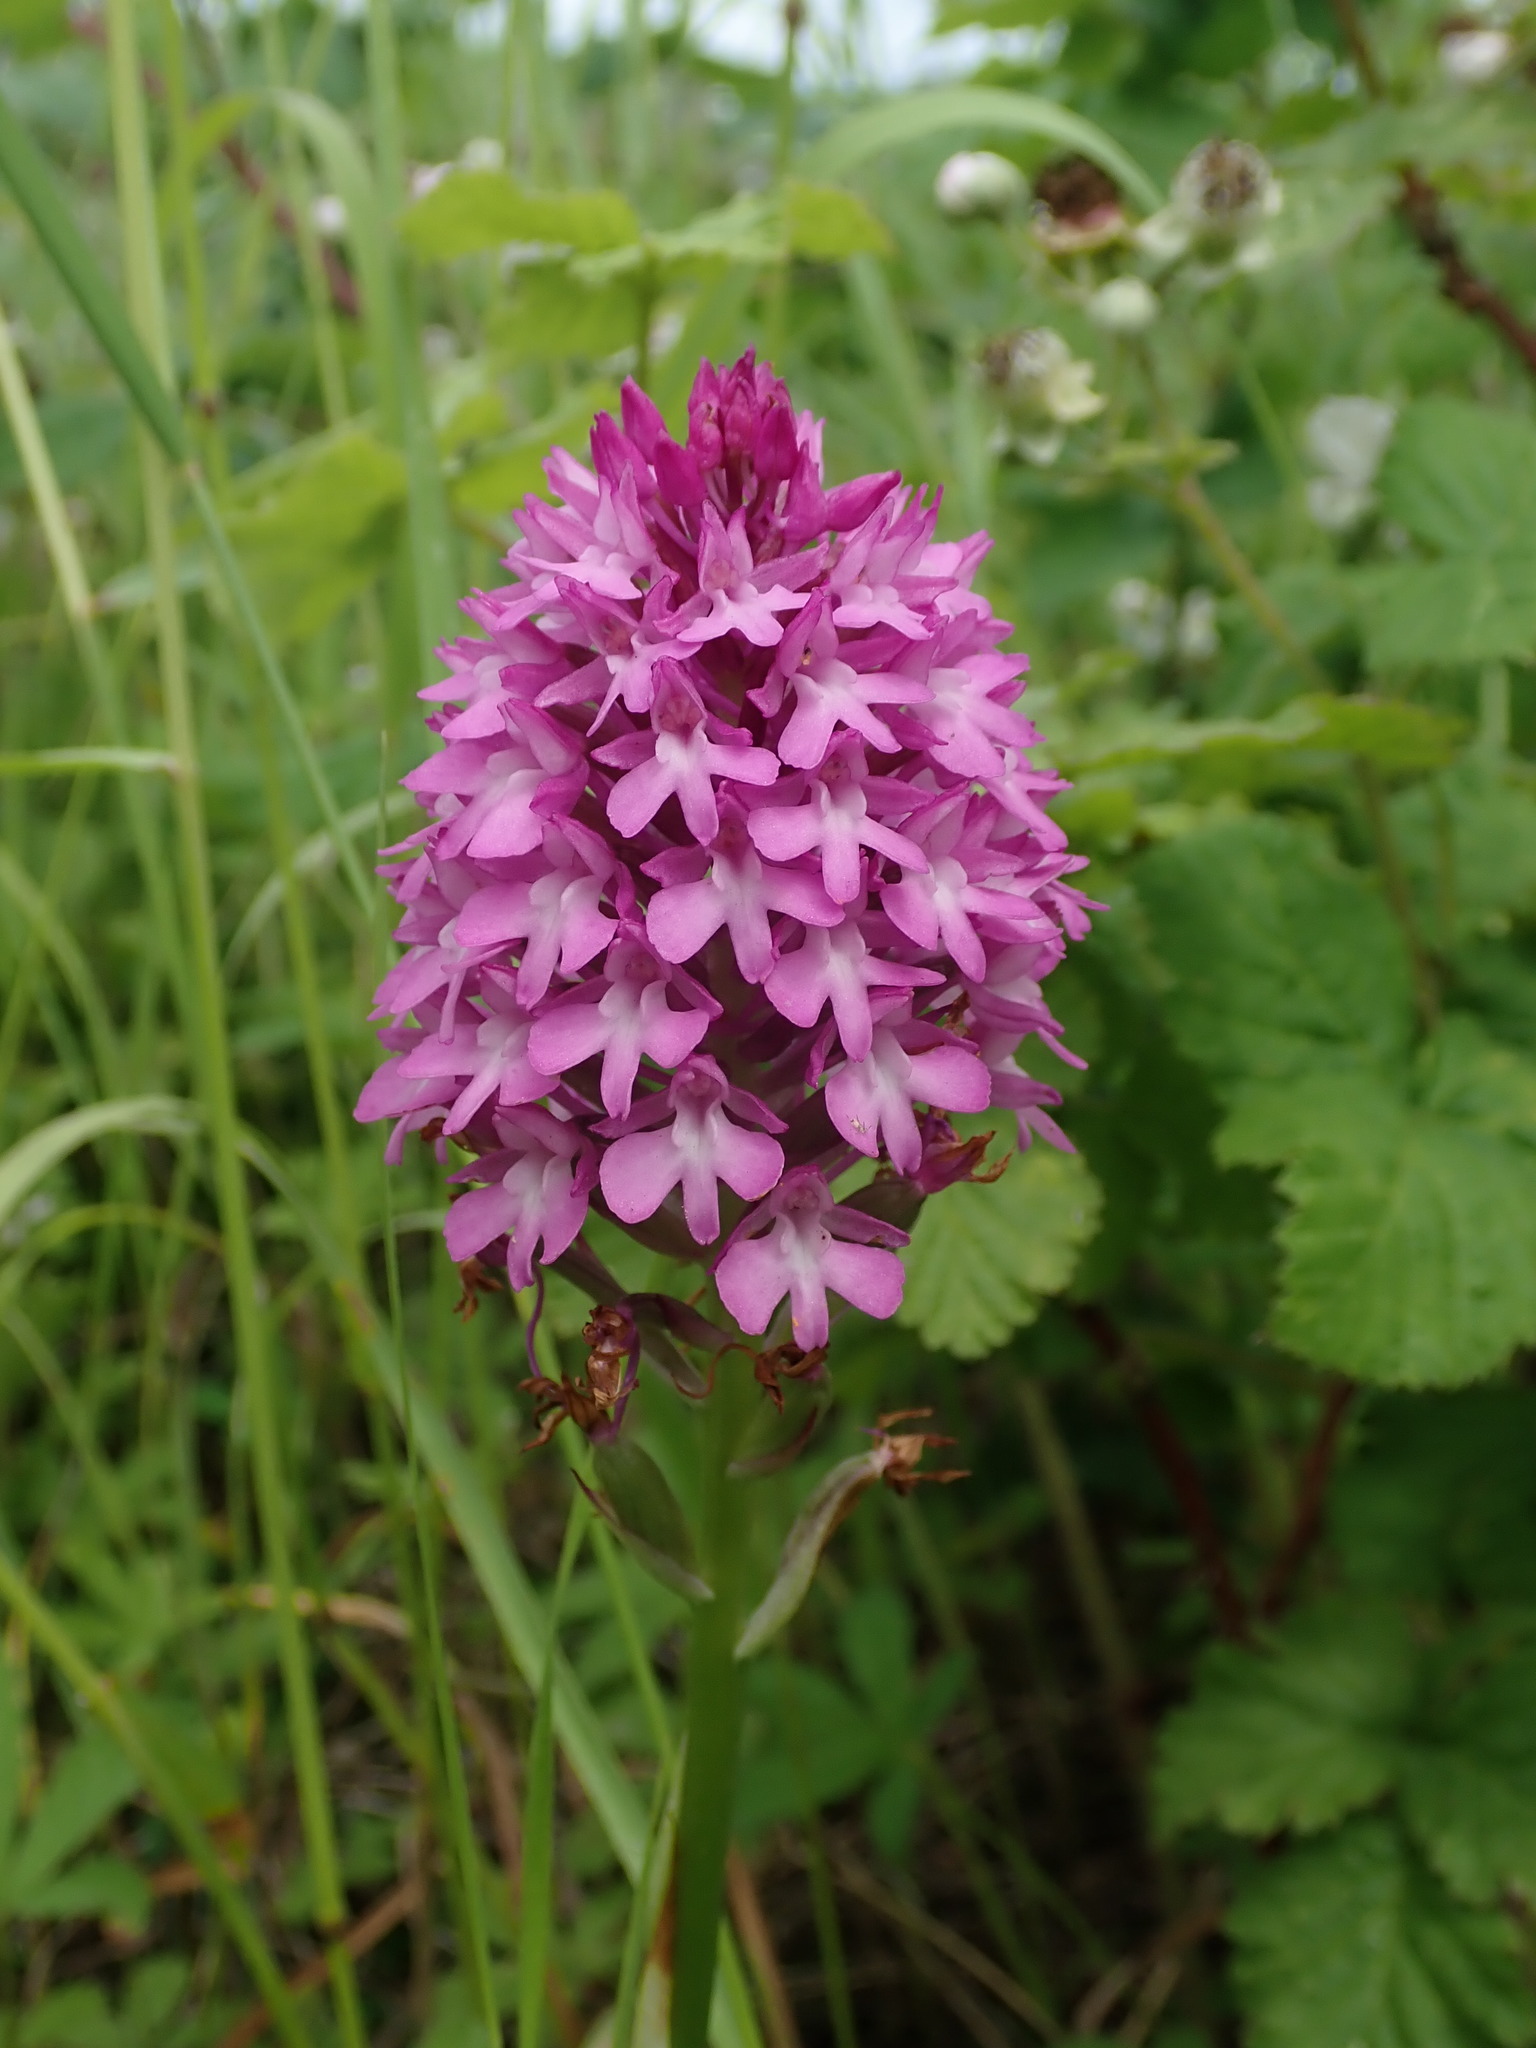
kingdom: Plantae
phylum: Tracheophyta
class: Liliopsida
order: Asparagales
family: Orchidaceae
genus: Anacamptis
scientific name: Anacamptis pyramidalis
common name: Pyramidal orchid
